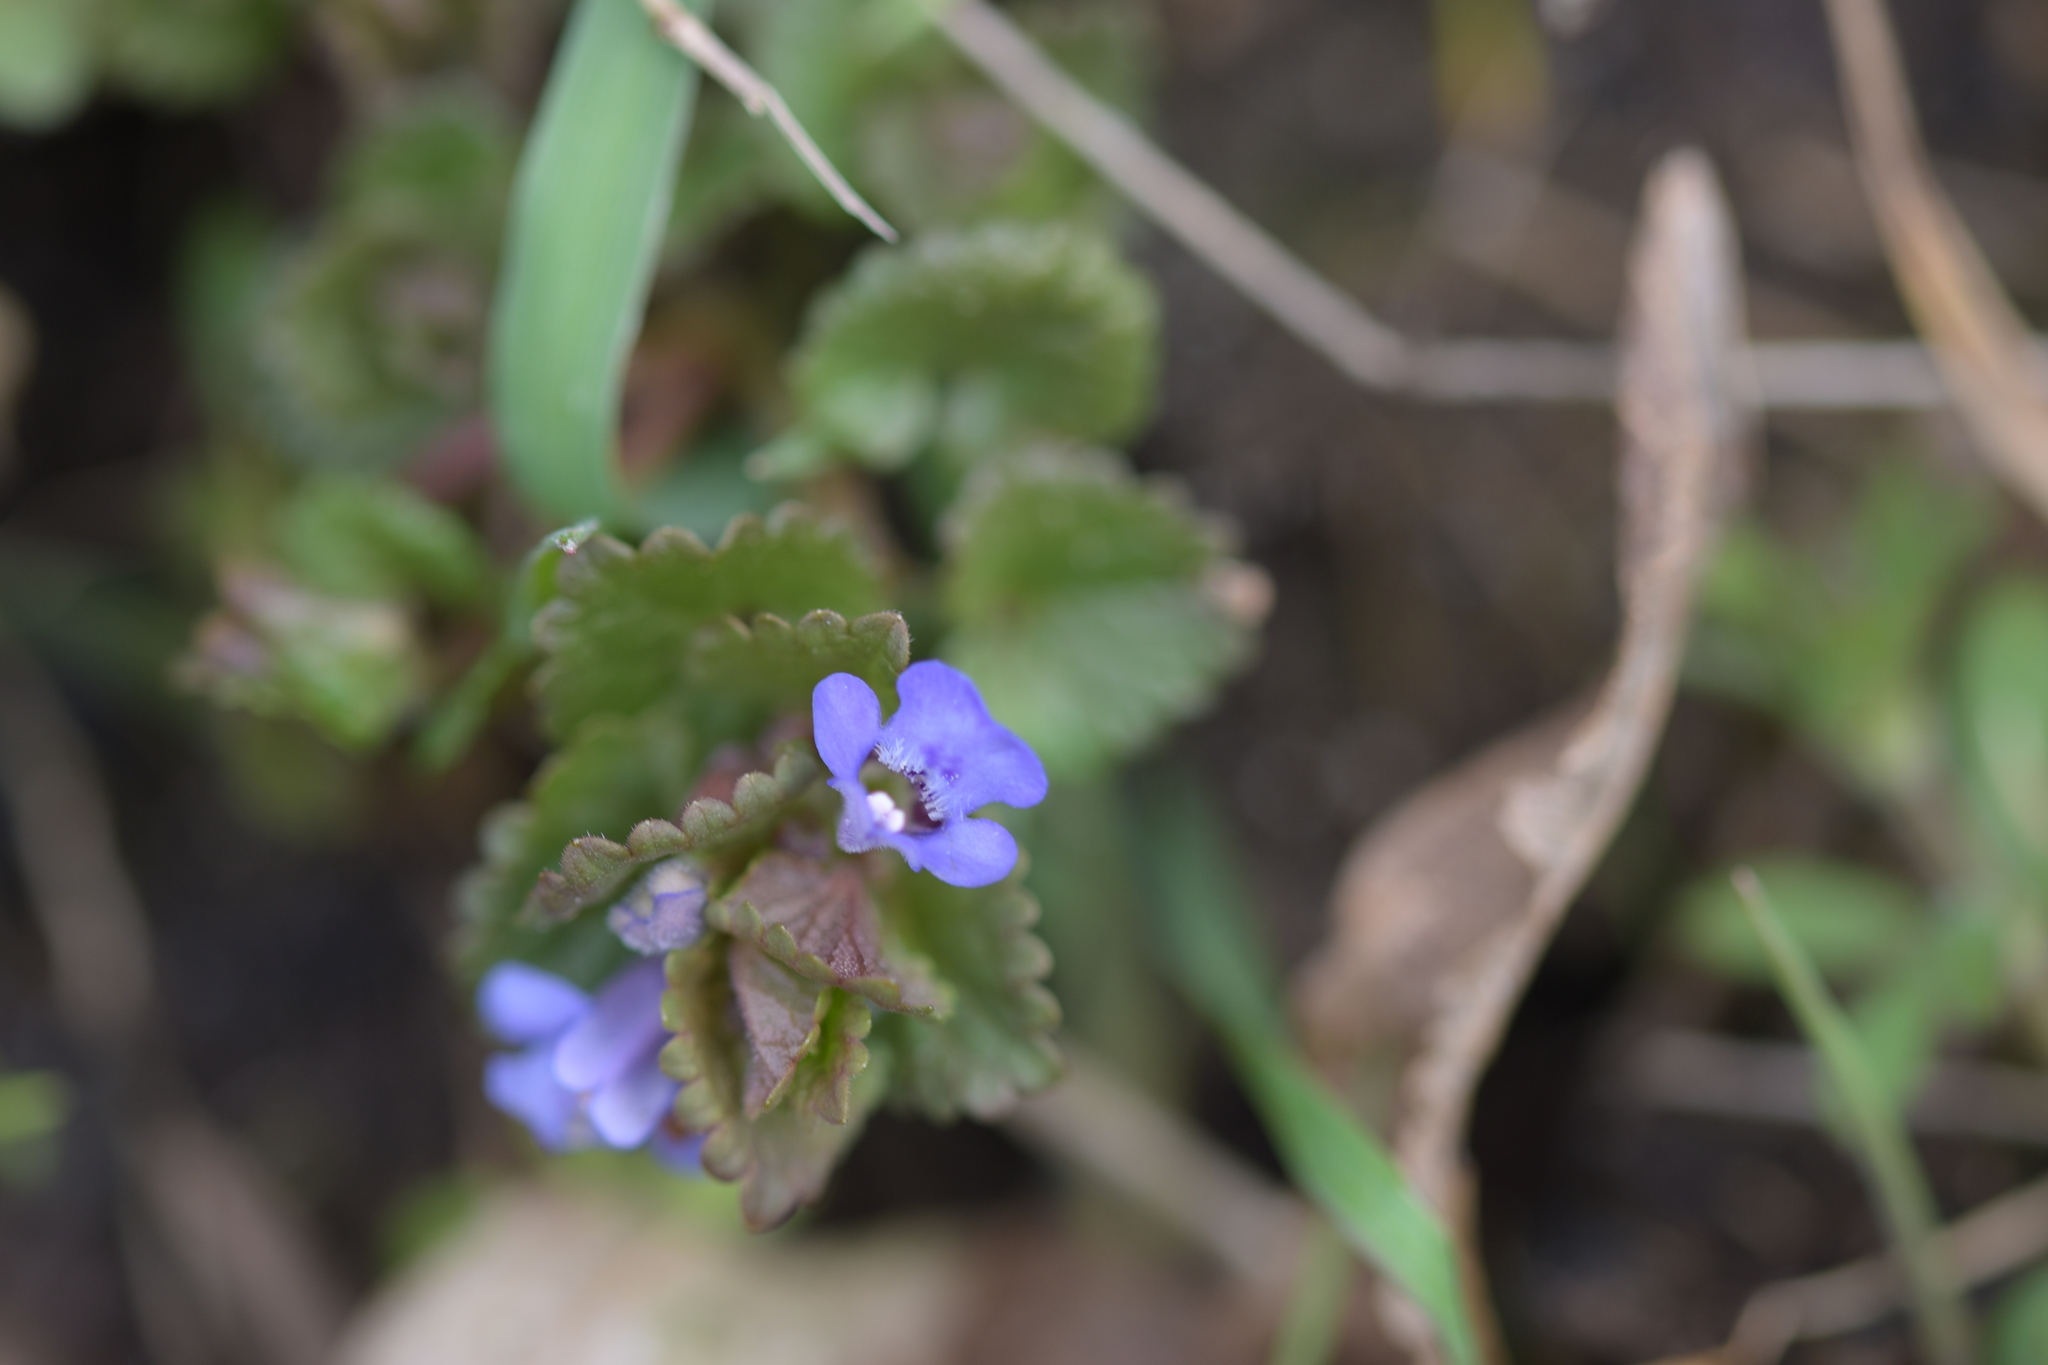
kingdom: Plantae
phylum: Tracheophyta
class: Magnoliopsida
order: Lamiales
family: Lamiaceae
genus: Glechoma
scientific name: Glechoma hederacea
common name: Ground ivy
